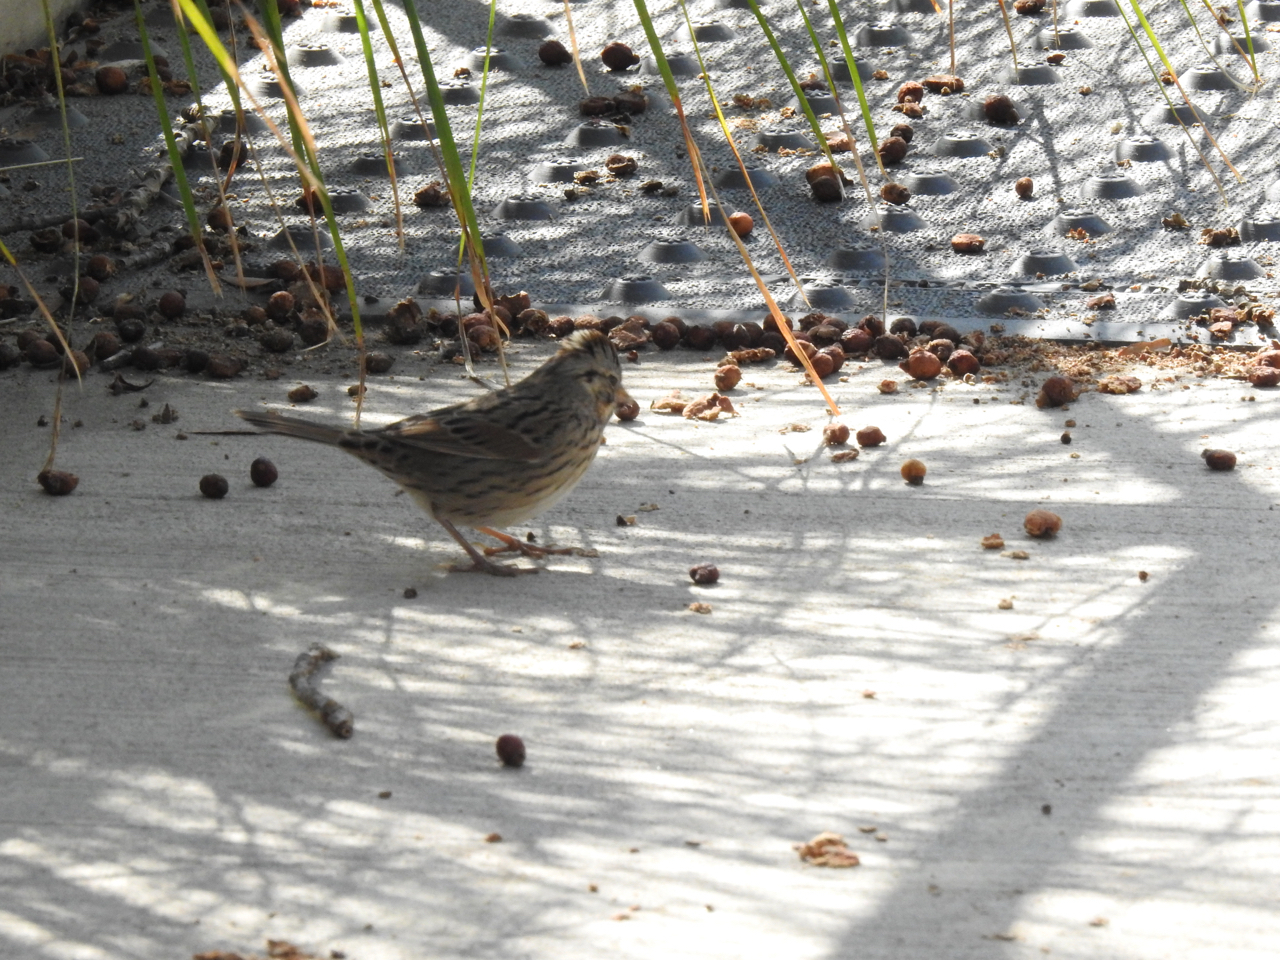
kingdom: Animalia
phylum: Chordata
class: Aves
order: Passeriformes
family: Passerellidae
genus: Melospiza
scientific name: Melospiza lincolnii
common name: Lincoln's sparrow
